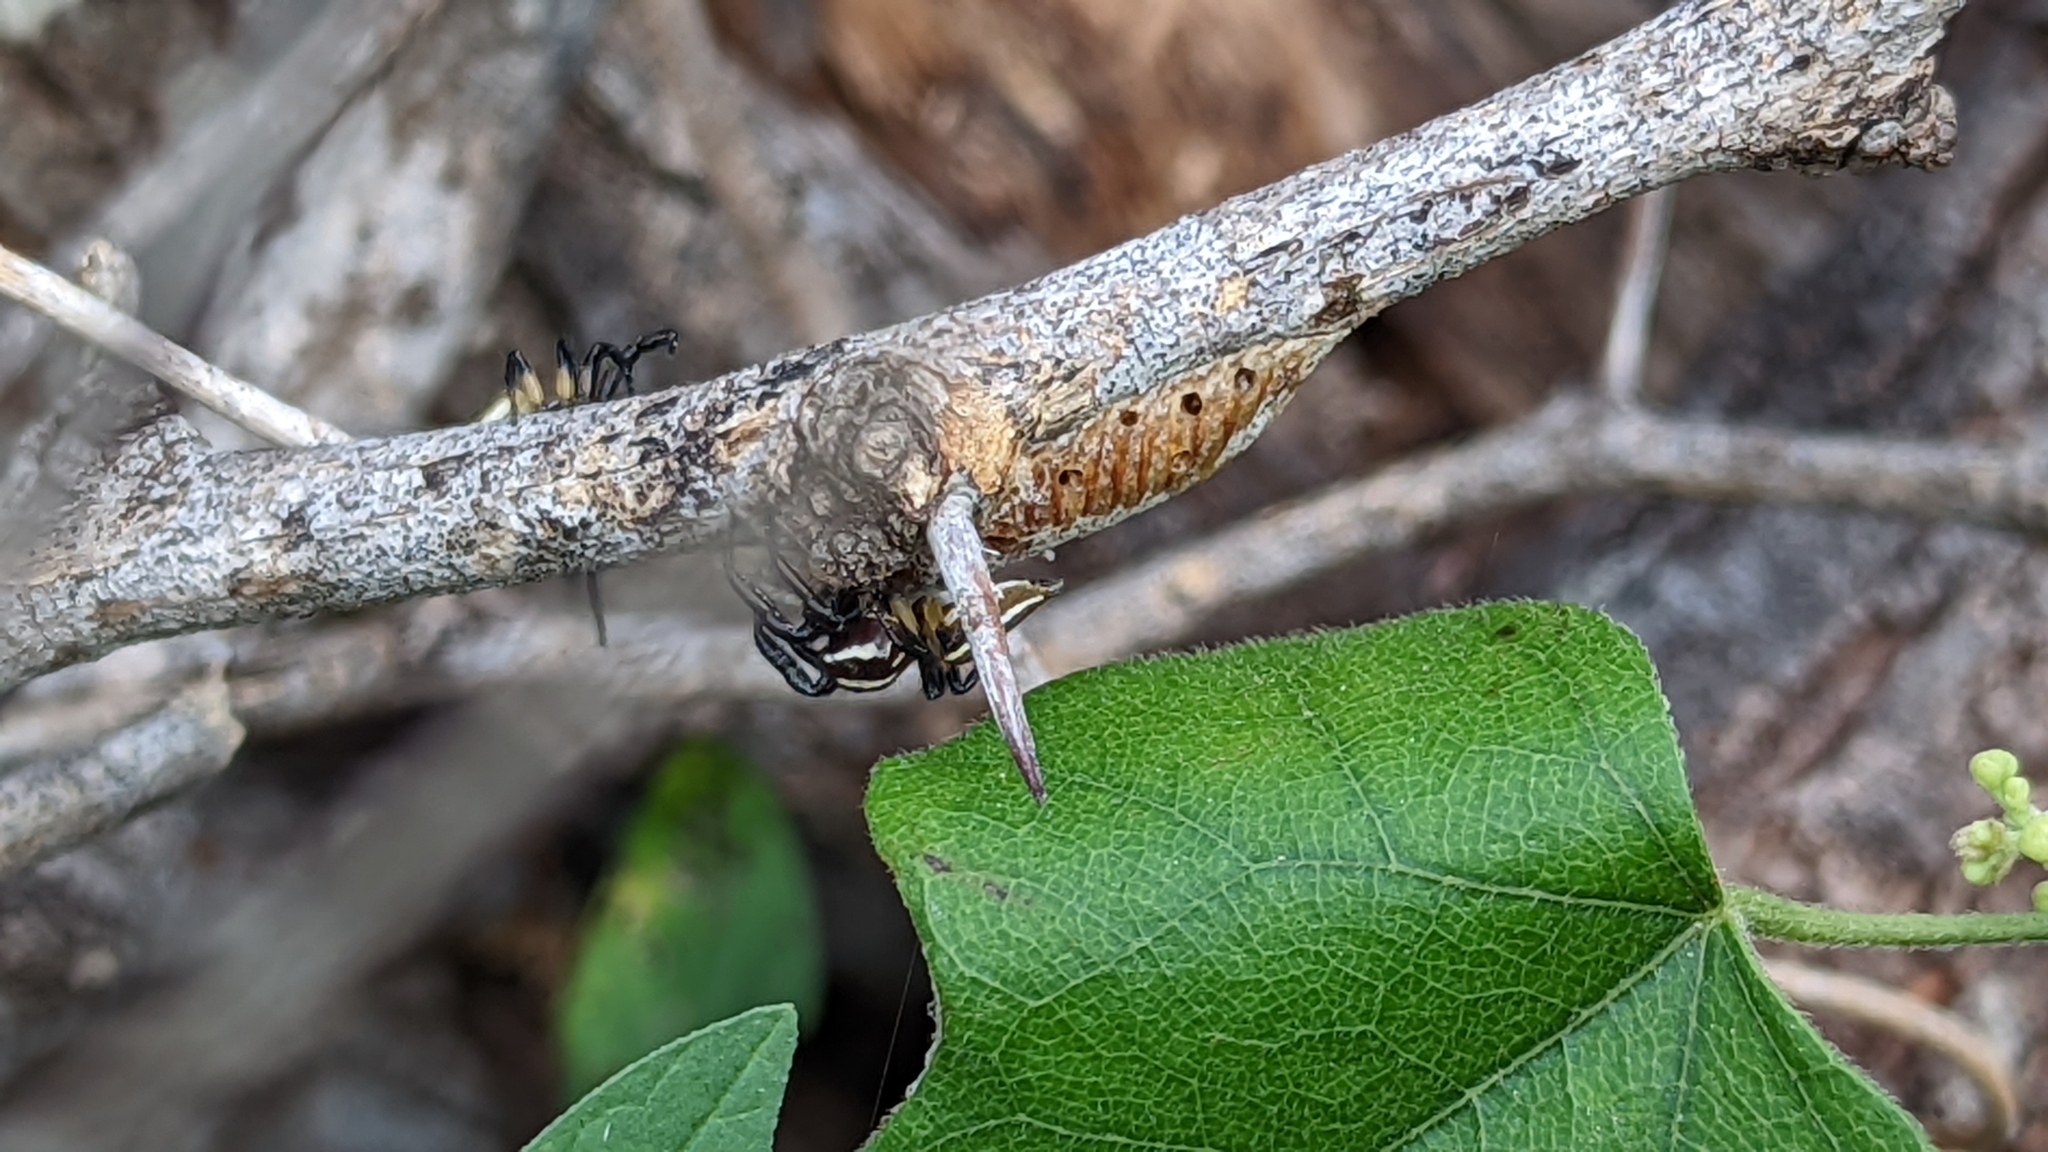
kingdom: Animalia
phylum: Arthropoda
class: Arachnida
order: Araneae
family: Salticidae
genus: Colonus
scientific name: Colonus puerperus
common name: Jumping spiders
